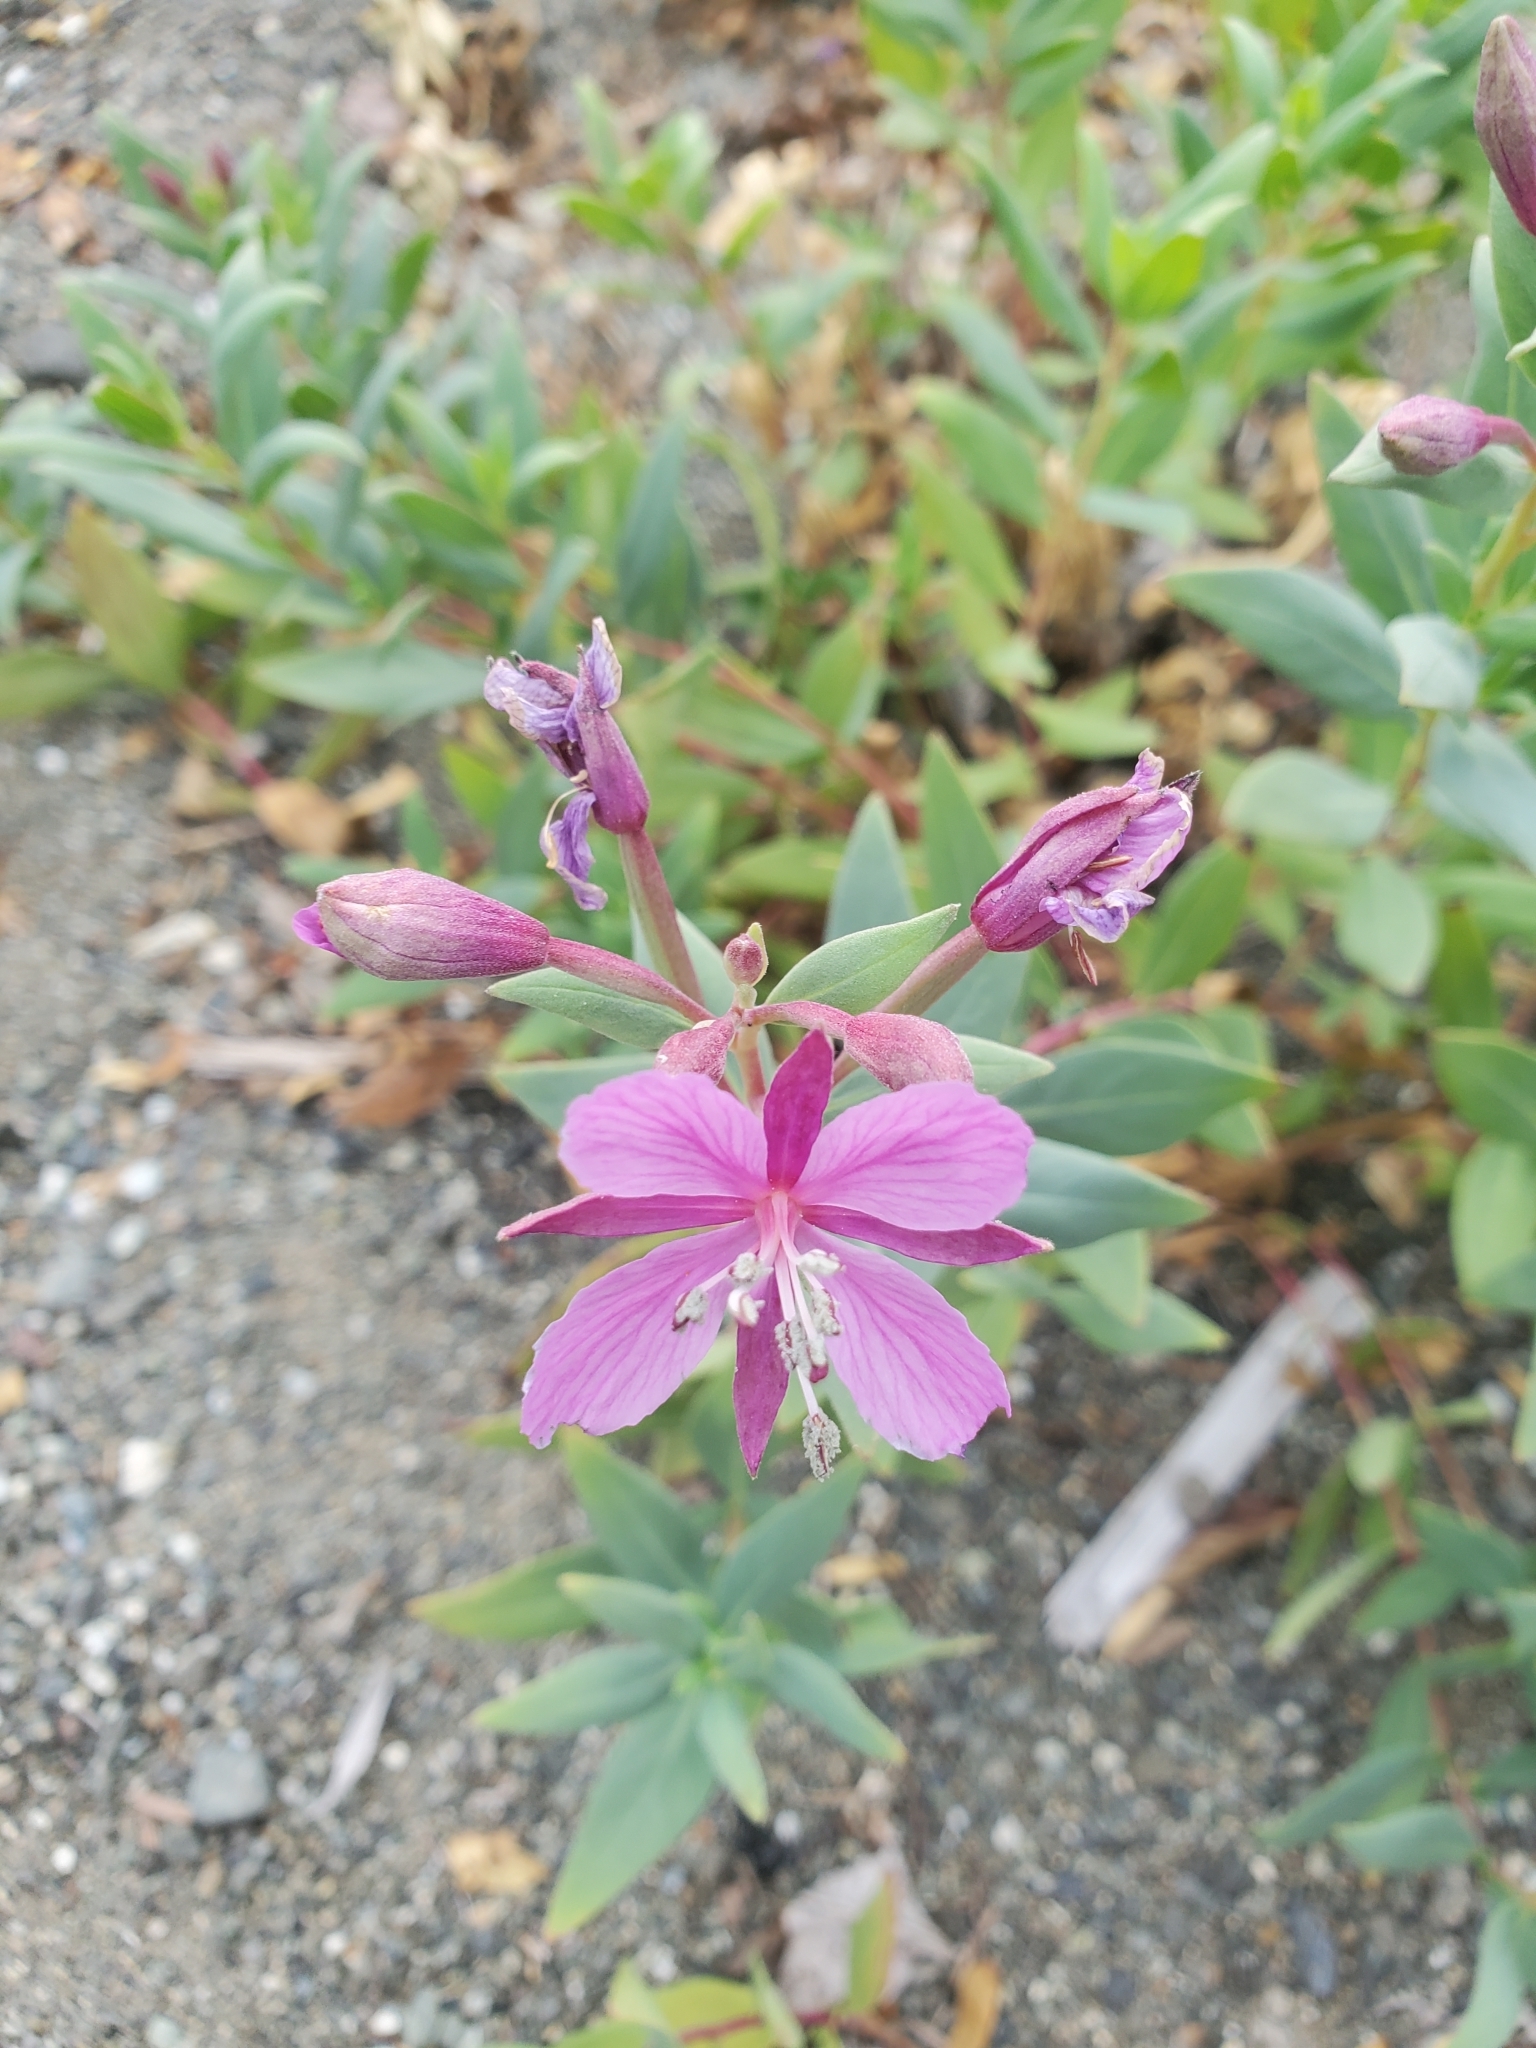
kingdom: Plantae
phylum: Tracheophyta
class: Magnoliopsida
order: Myrtales
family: Onagraceae
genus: Chamaenerion
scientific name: Chamaenerion latifolium
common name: Dwarf fireweed
